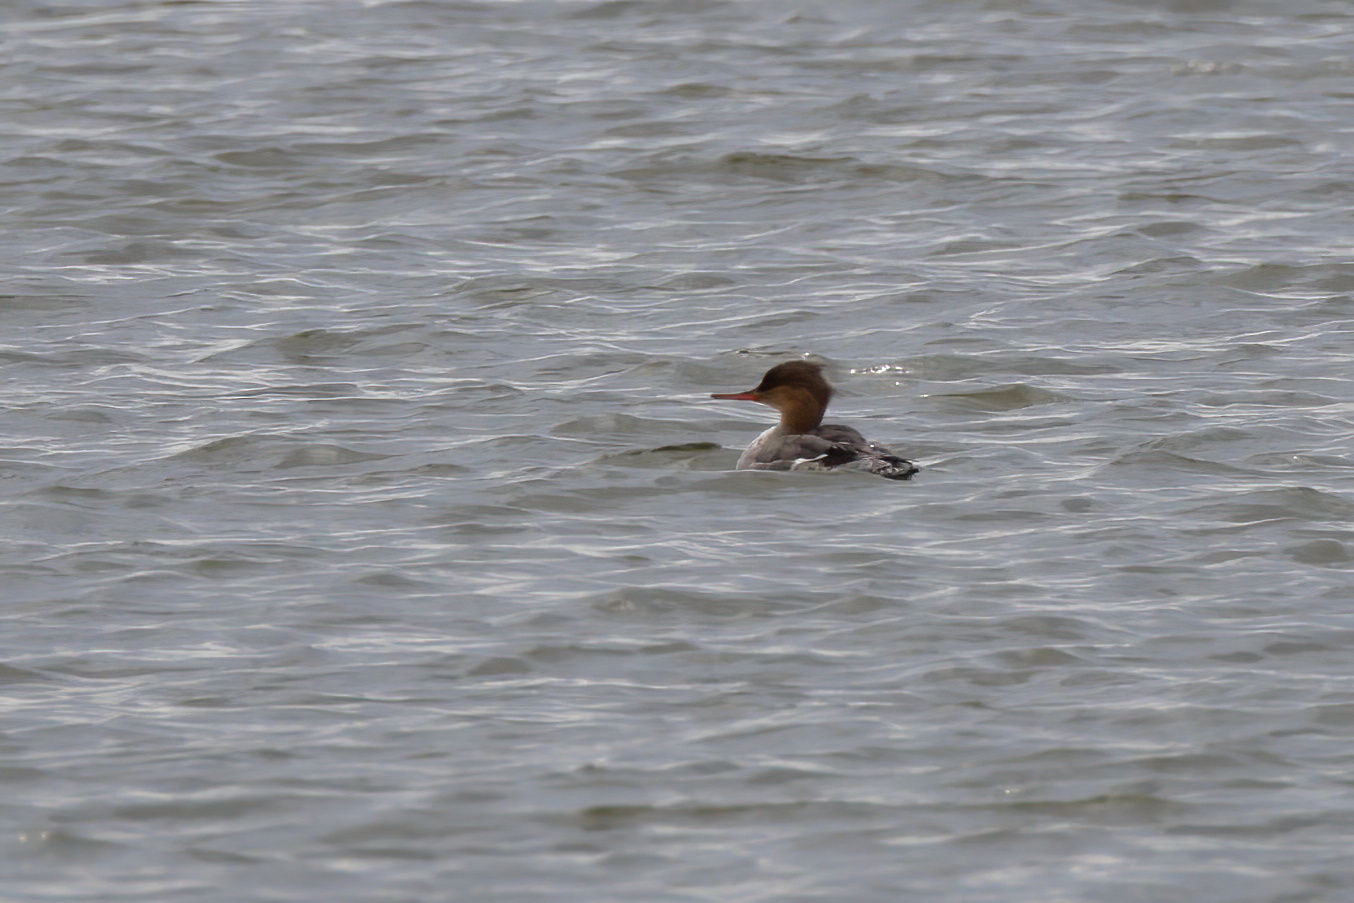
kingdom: Animalia
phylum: Chordata
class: Aves
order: Anseriformes
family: Anatidae
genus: Mergus
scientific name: Mergus serrator
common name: Red-breasted merganser
